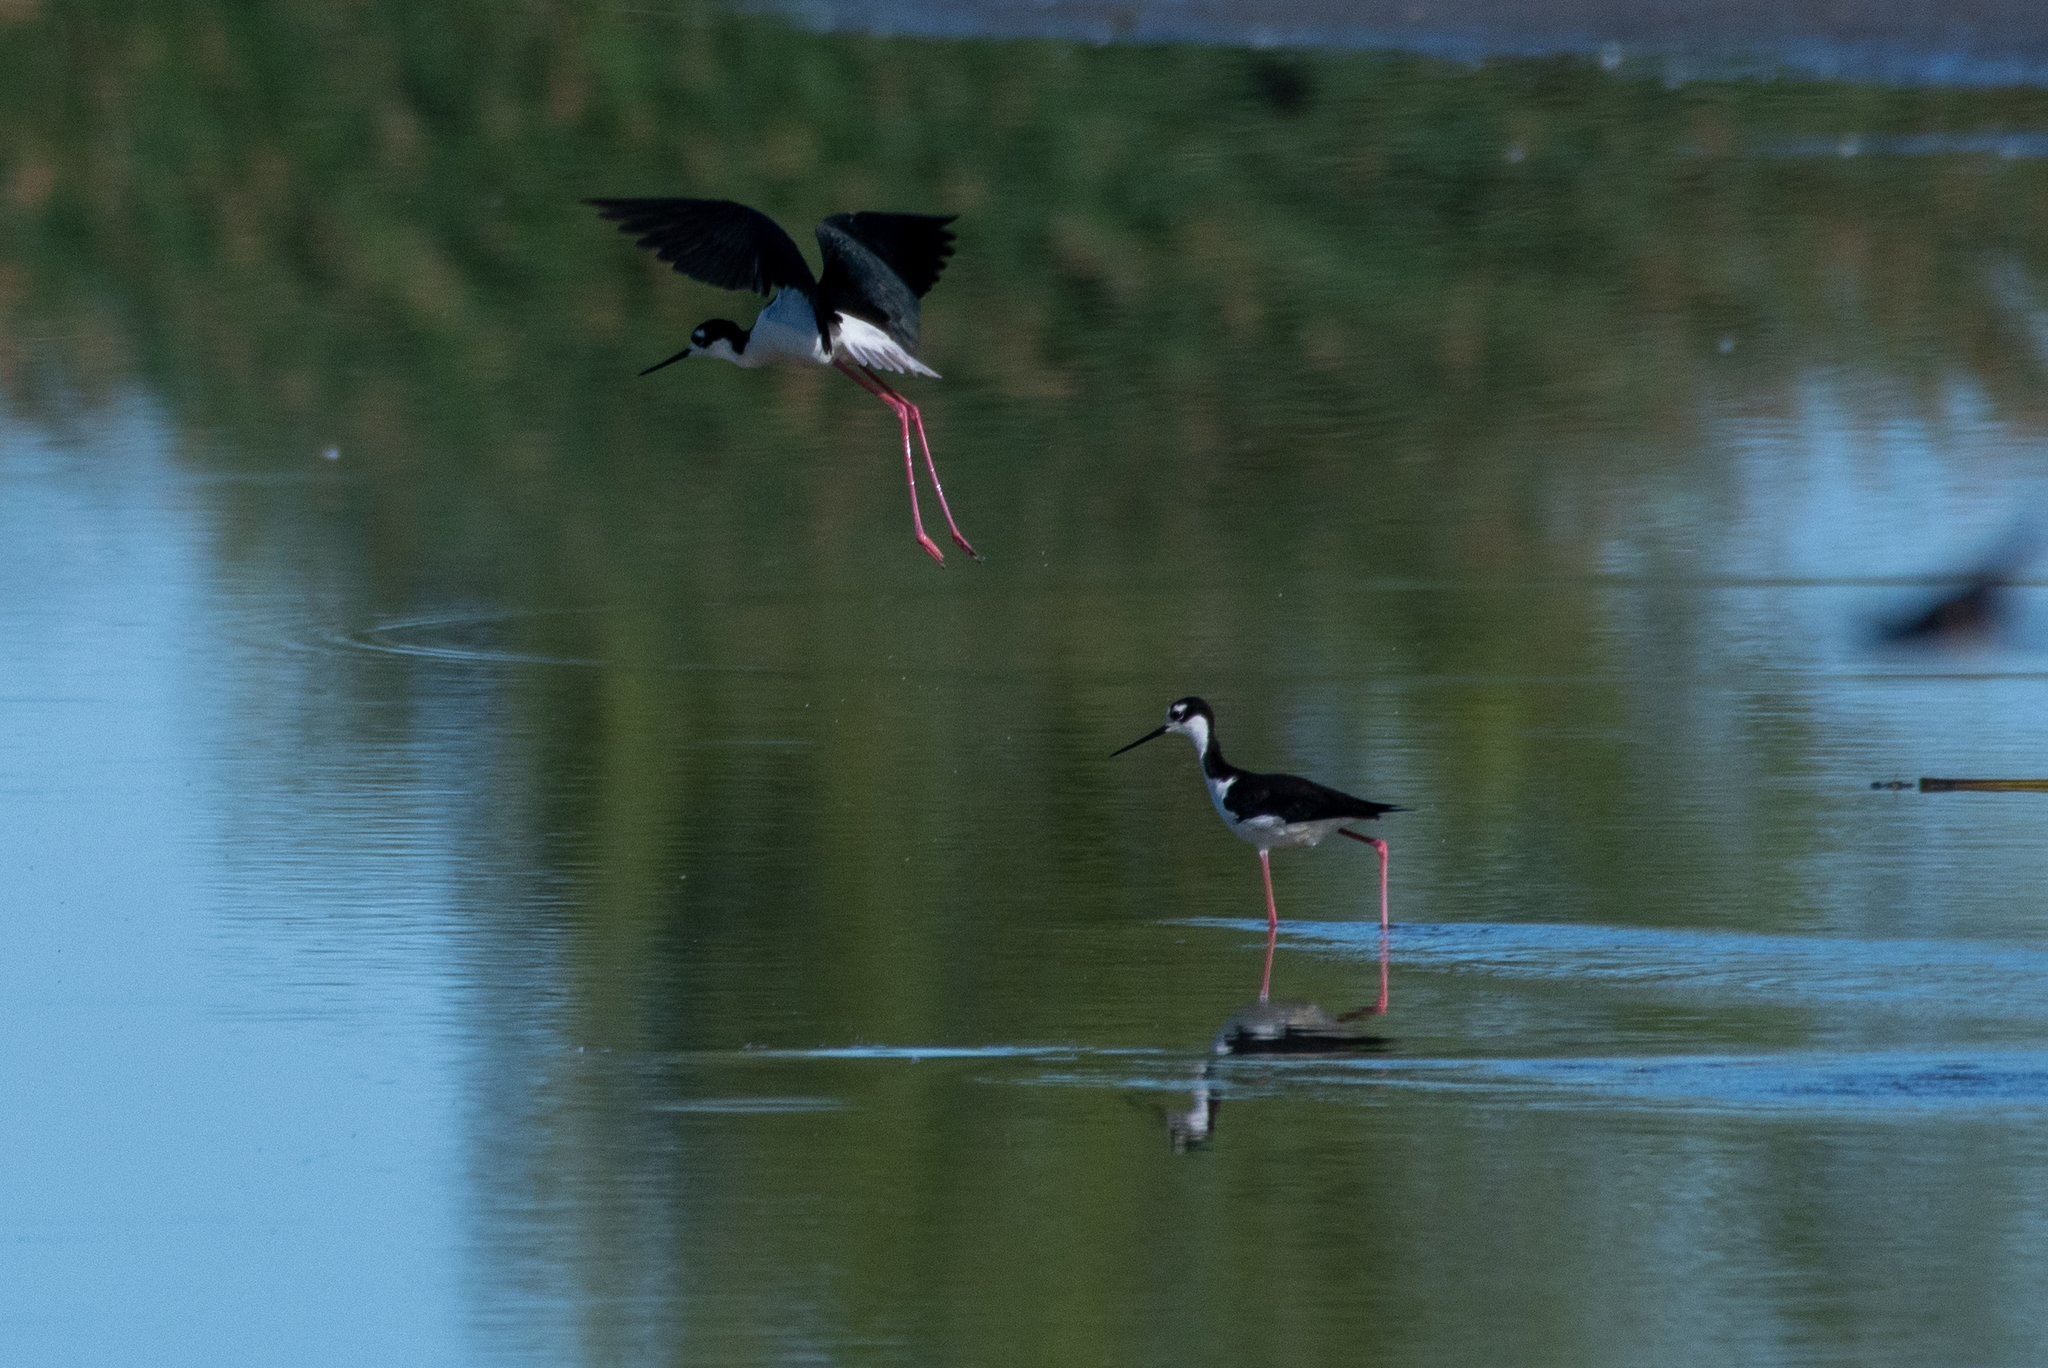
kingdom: Animalia
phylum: Chordata
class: Aves
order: Charadriiformes
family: Recurvirostridae
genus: Himantopus
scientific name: Himantopus mexicanus
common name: Black-necked stilt
